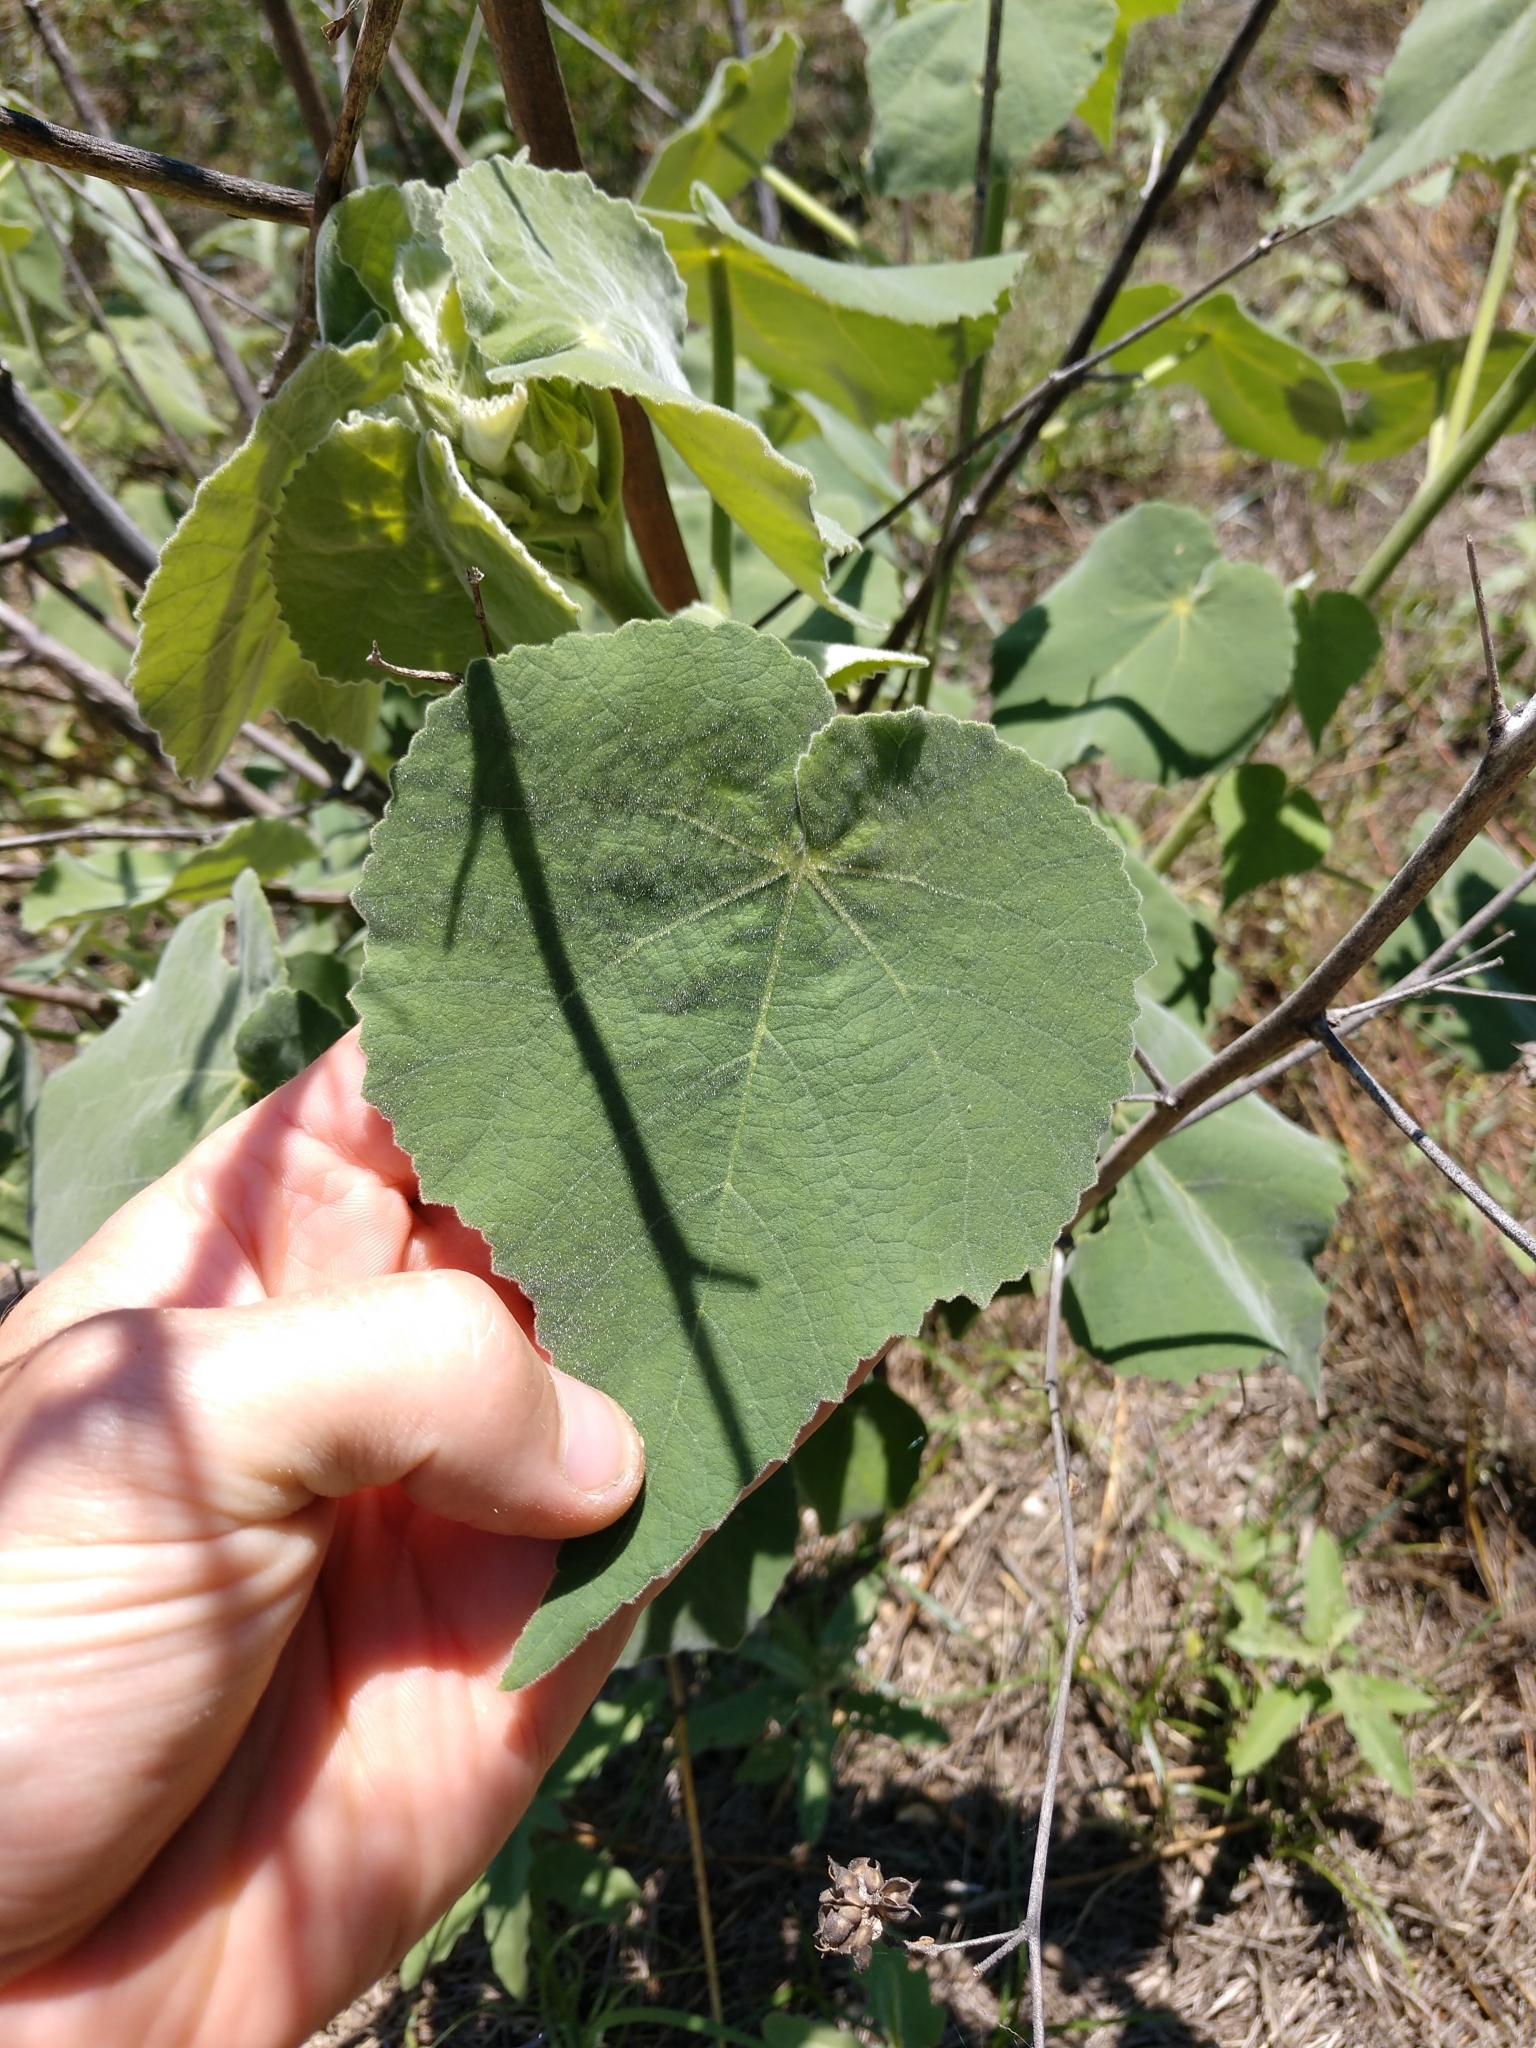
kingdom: Plantae
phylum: Tracheophyta
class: Magnoliopsida
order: Malvales
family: Malvaceae
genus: Allowissadula
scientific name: Allowissadula holosericea
